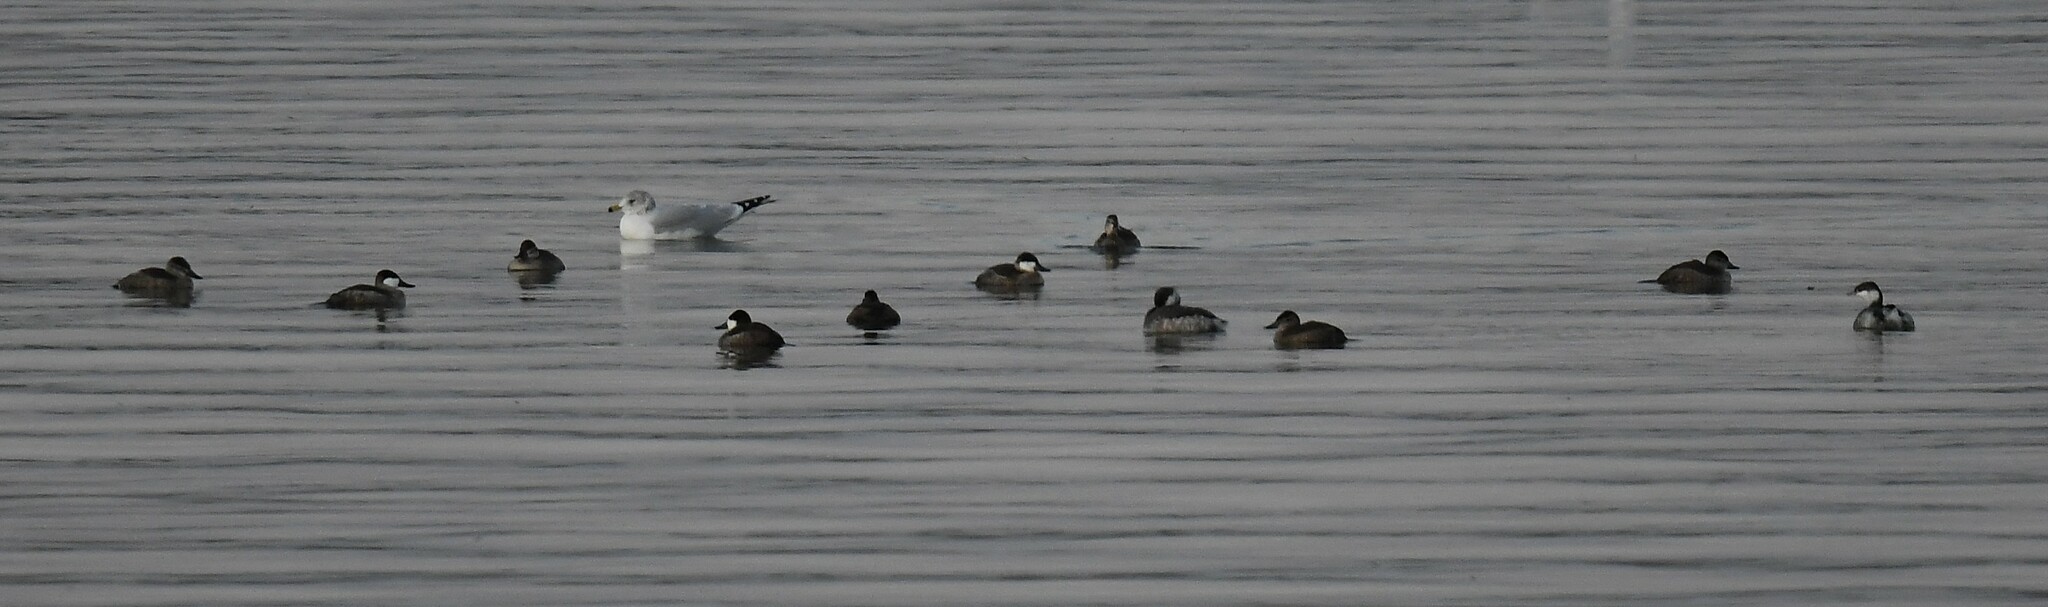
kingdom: Animalia
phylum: Chordata
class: Aves
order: Anseriformes
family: Anatidae
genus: Oxyura
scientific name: Oxyura jamaicensis
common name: Ruddy duck
